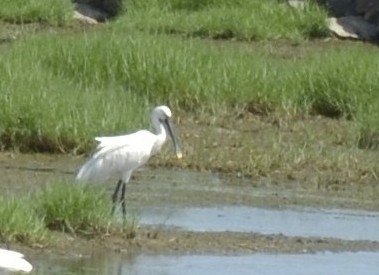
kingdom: Animalia
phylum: Chordata
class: Aves
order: Pelecaniformes
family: Threskiornithidae
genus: Platalea
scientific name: Platalea leucorodia
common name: Eurasian spoonbill
